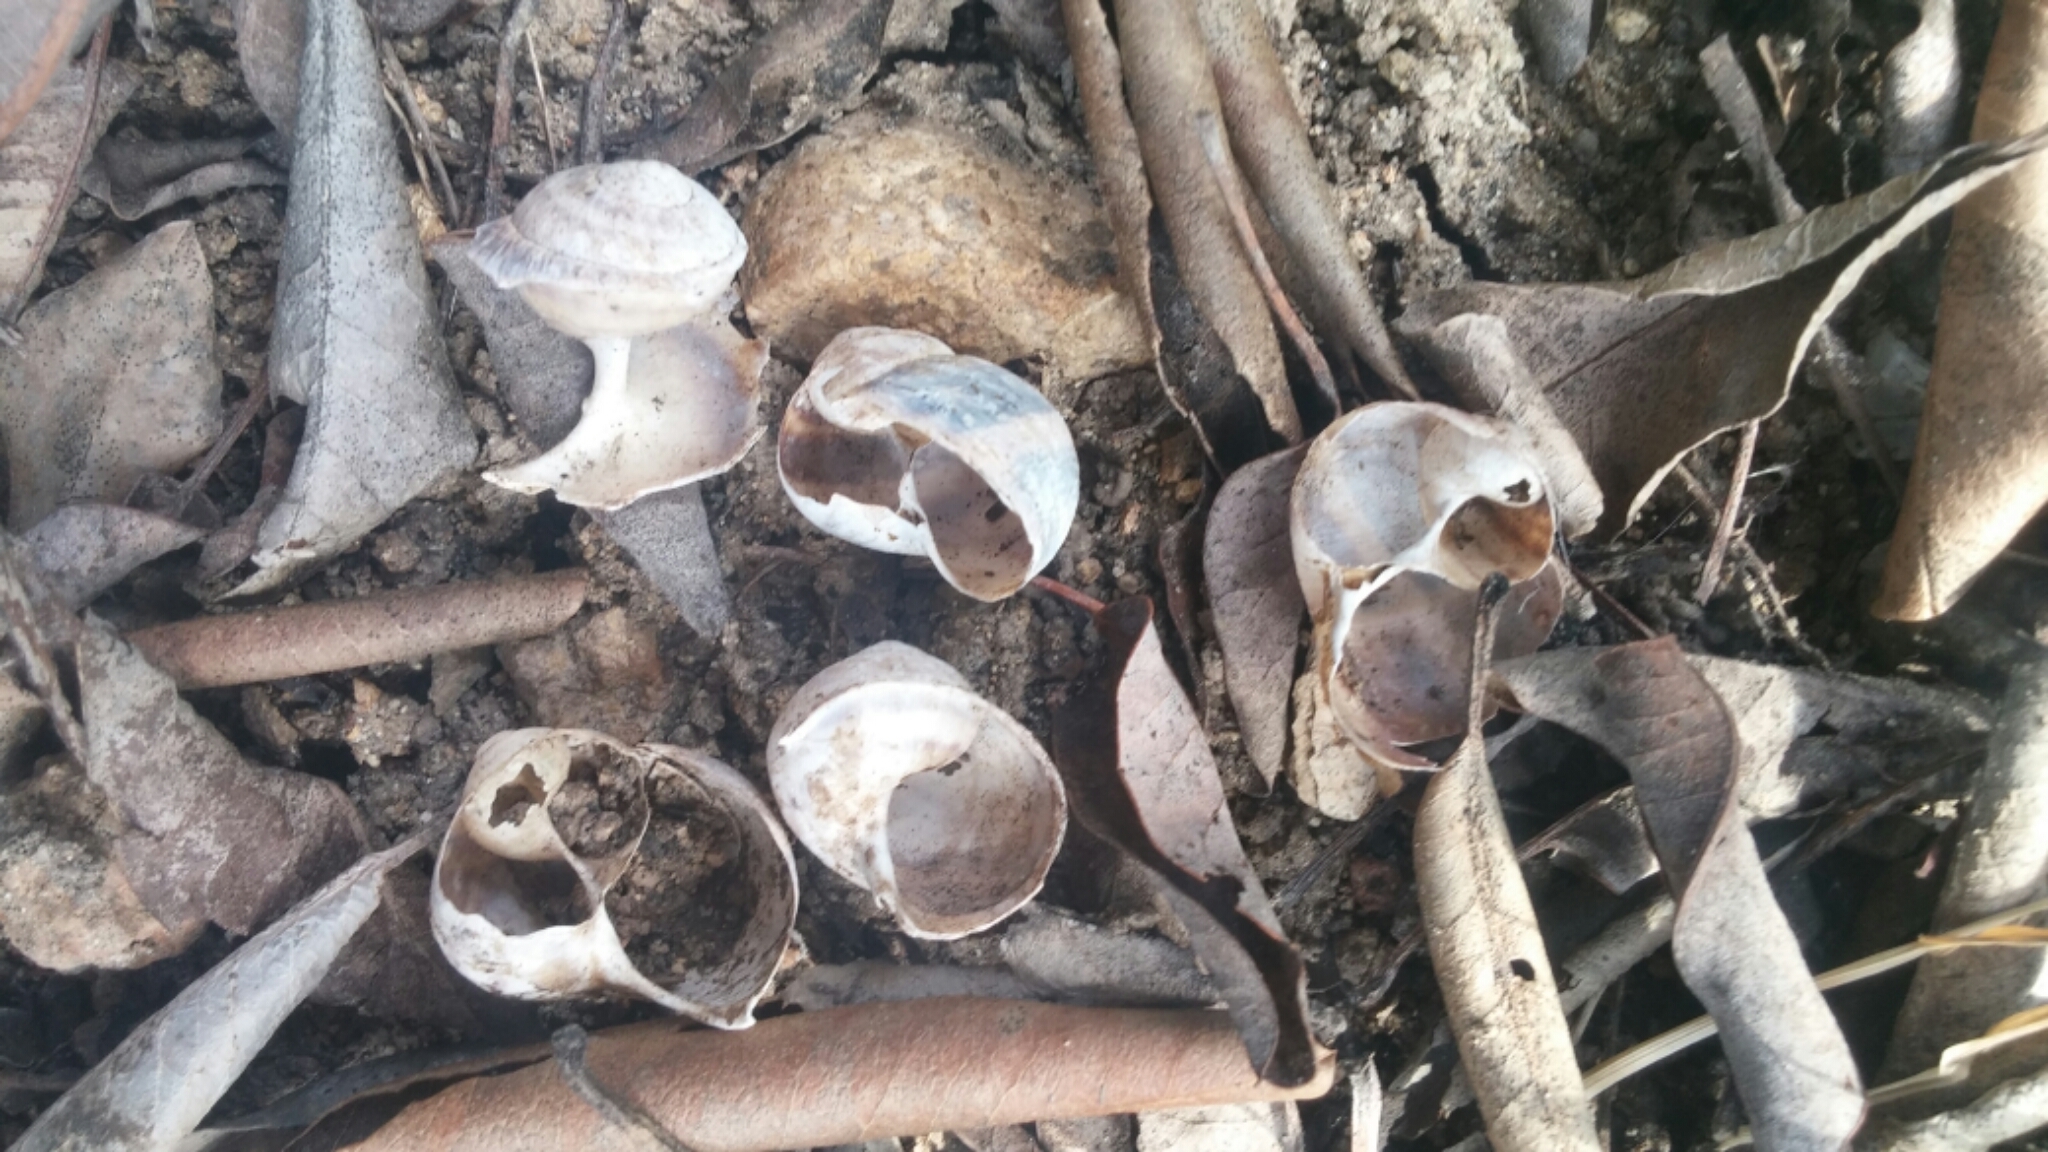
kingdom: Animalia
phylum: Mollusca
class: Gastropoda
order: Stylommatophora
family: Helicidae
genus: Cornu
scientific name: Cornu aspersum
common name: Brown garden snail
